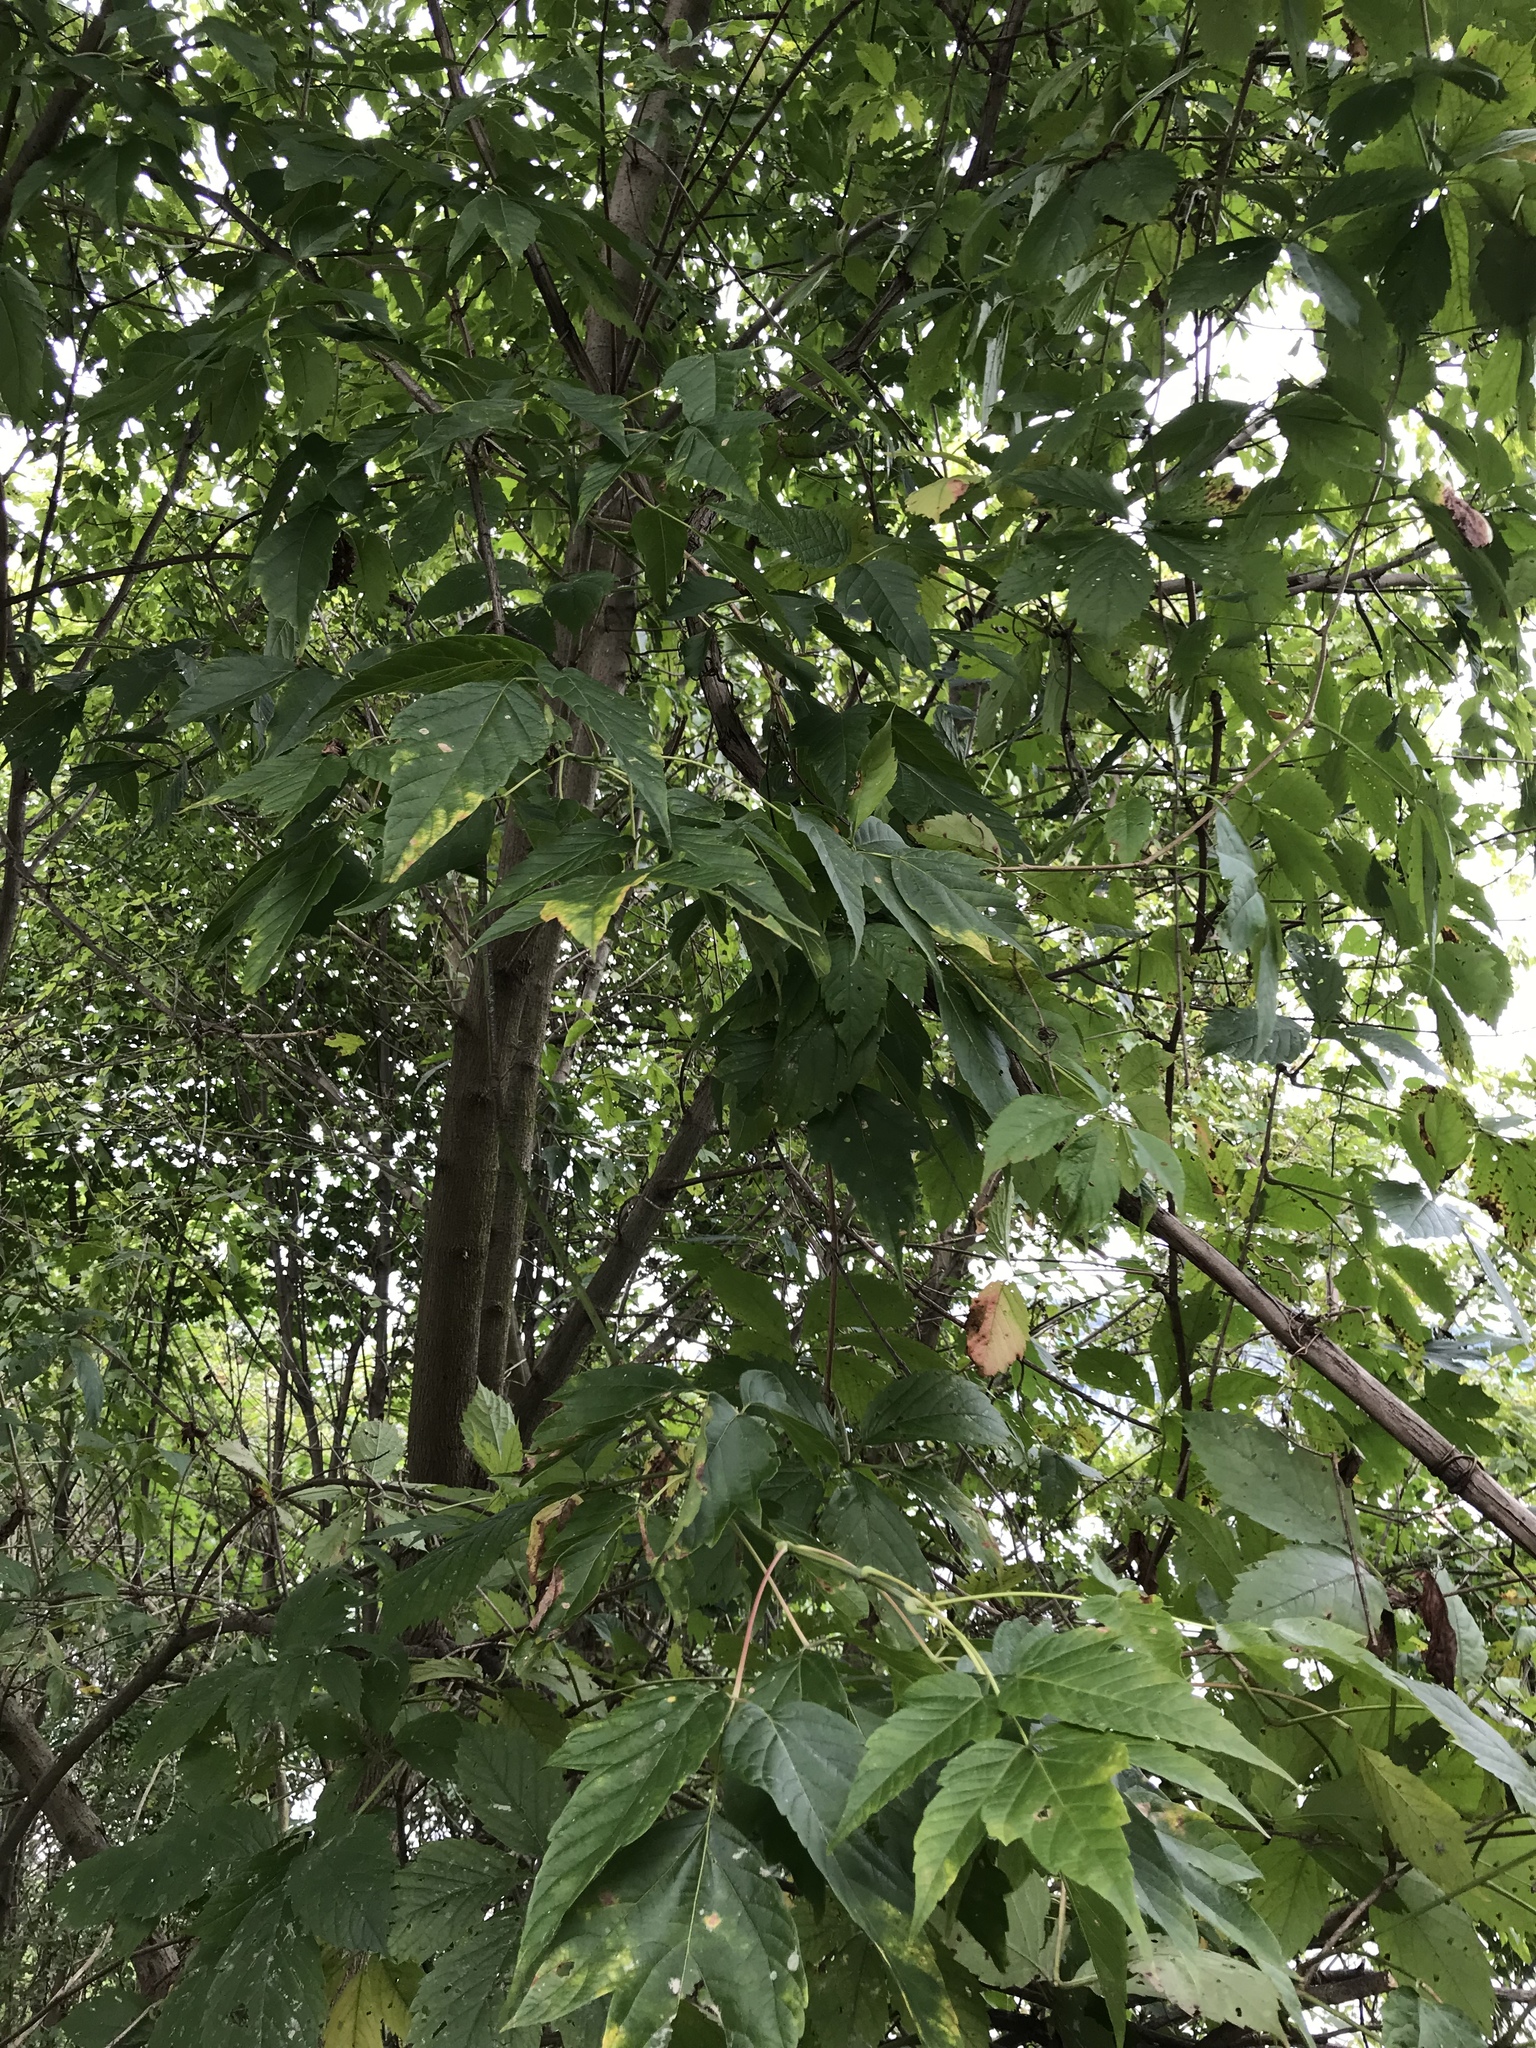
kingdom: Plantae
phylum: Tracheophyta
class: Magnoliopsida
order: Sapindales
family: Sapindaceae
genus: Acer
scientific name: Acer negundo
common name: Ashleaf maple
